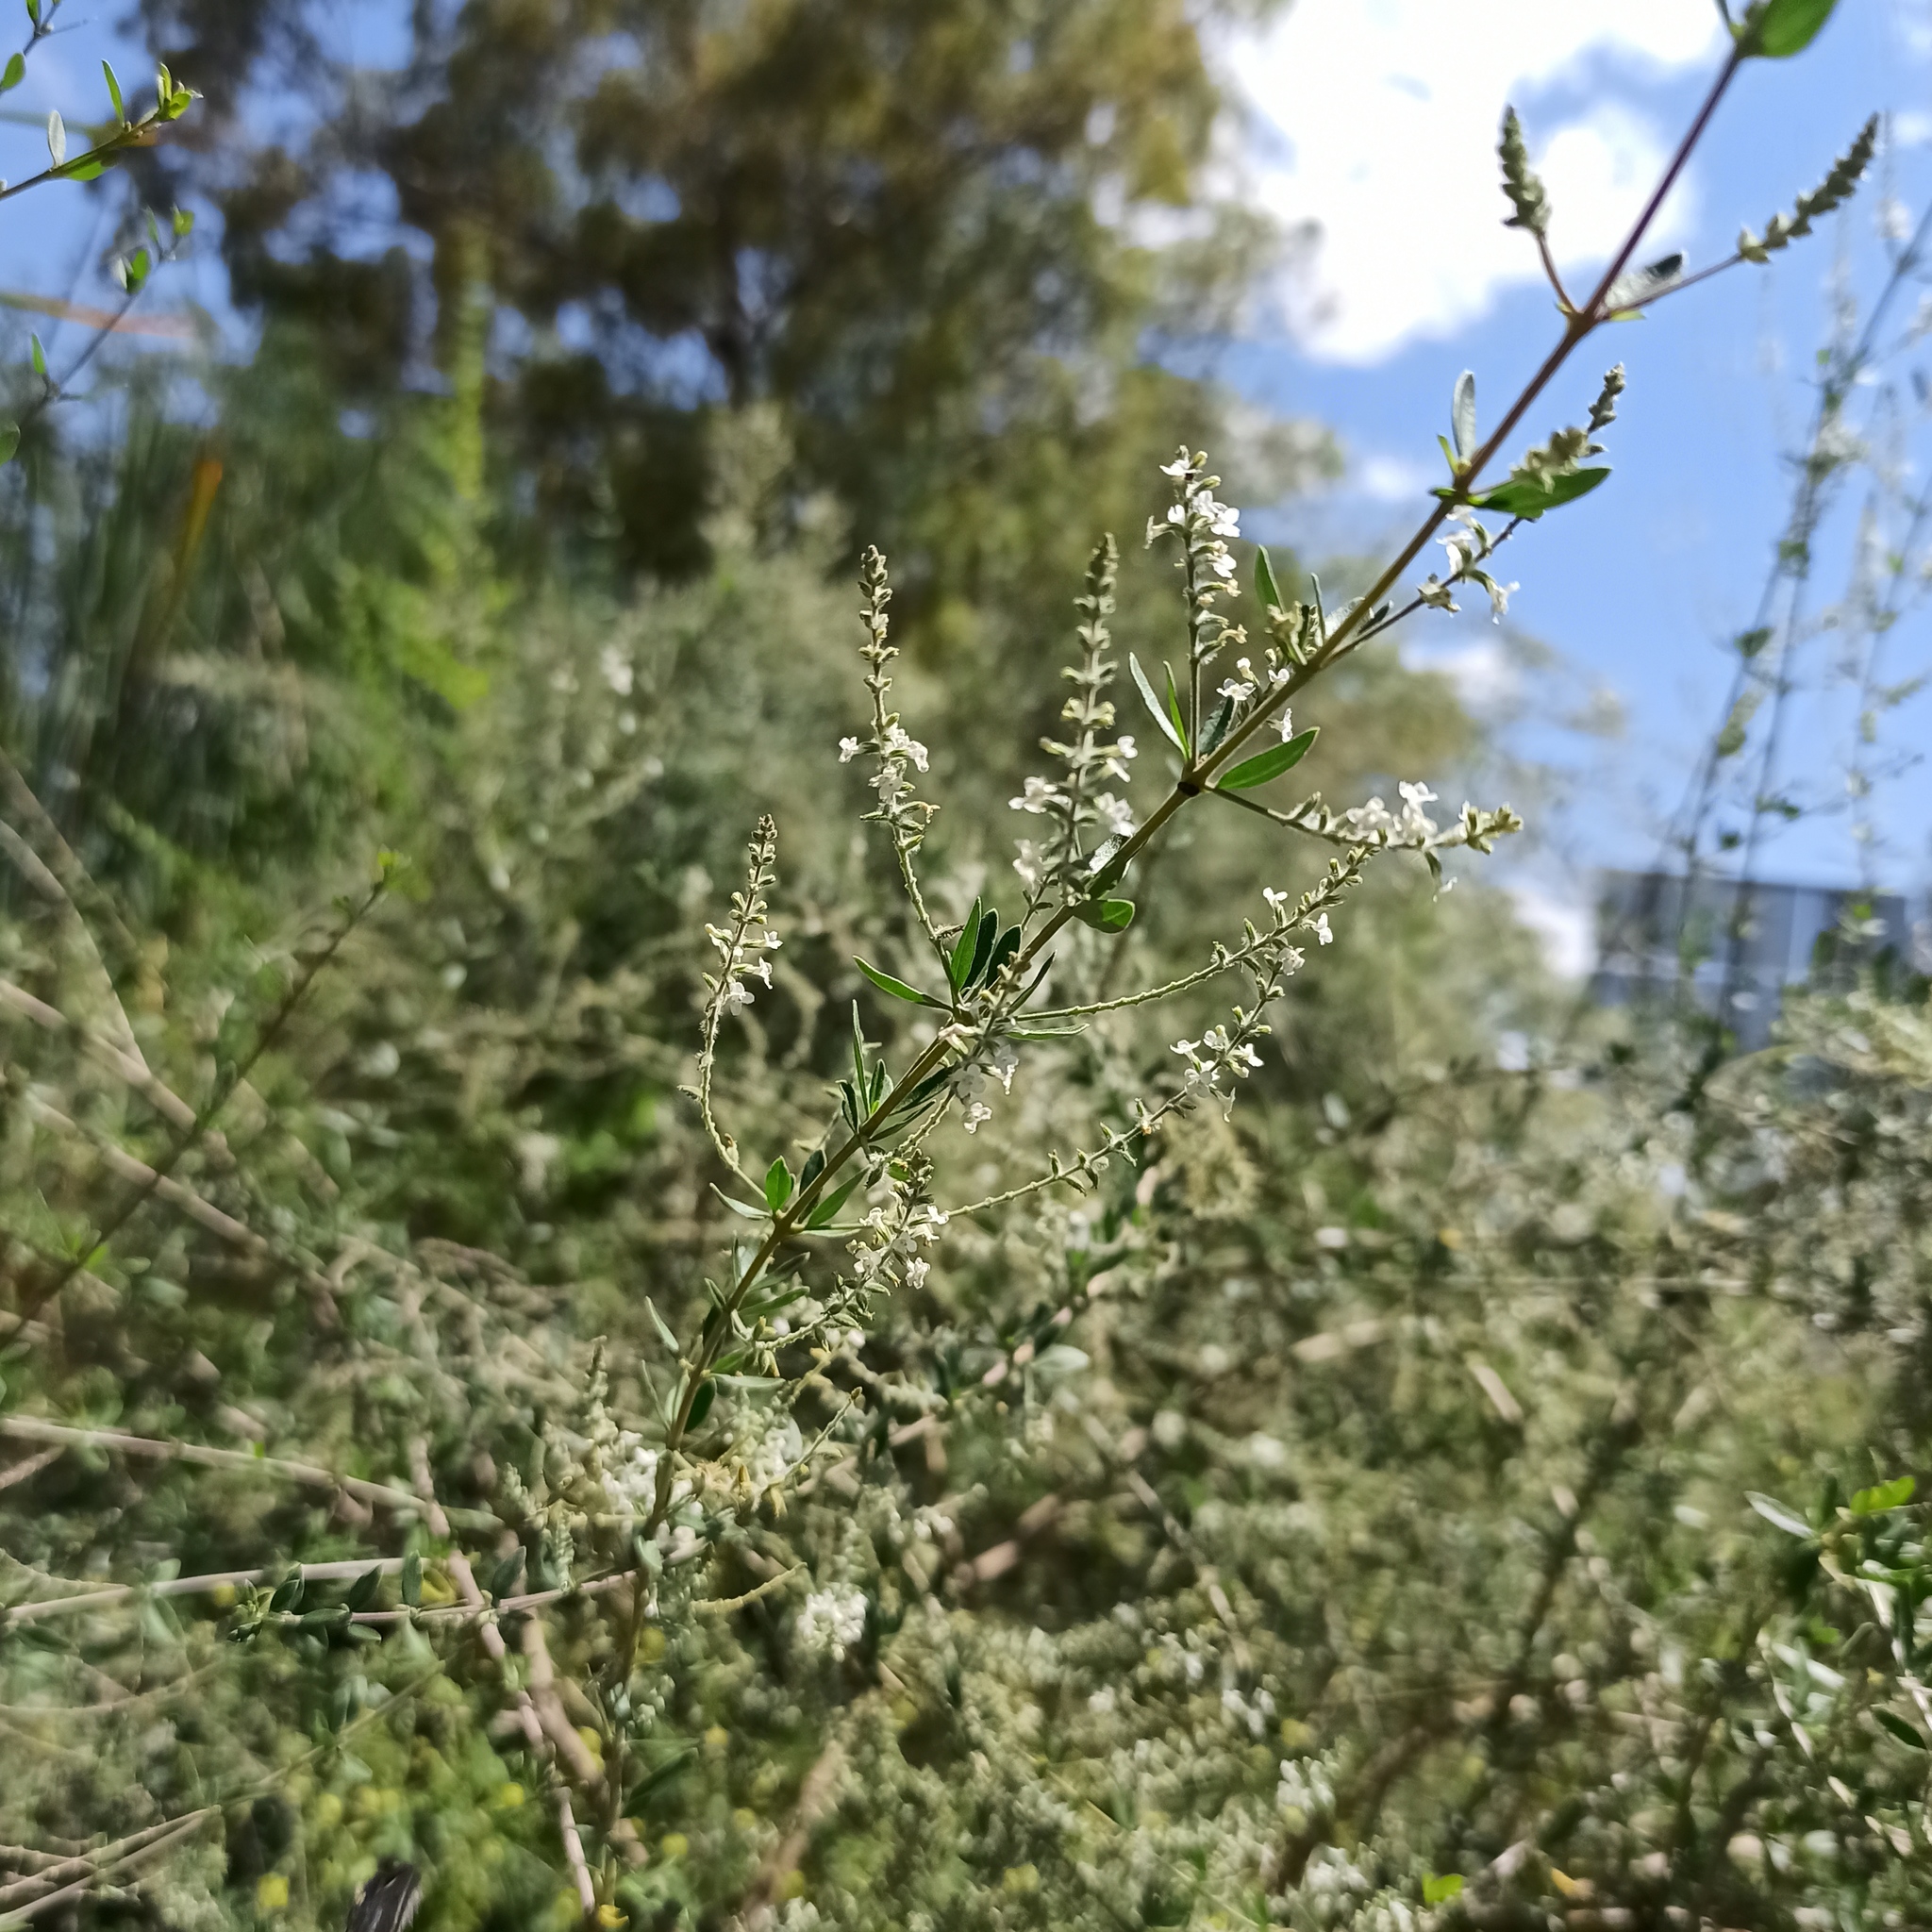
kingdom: Plantae
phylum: Tracheophyta
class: Magnoliopsida
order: Lamiales
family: Verbenaceae
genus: Aloysia
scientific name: Aloysia gratissima
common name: Common bee-brush
